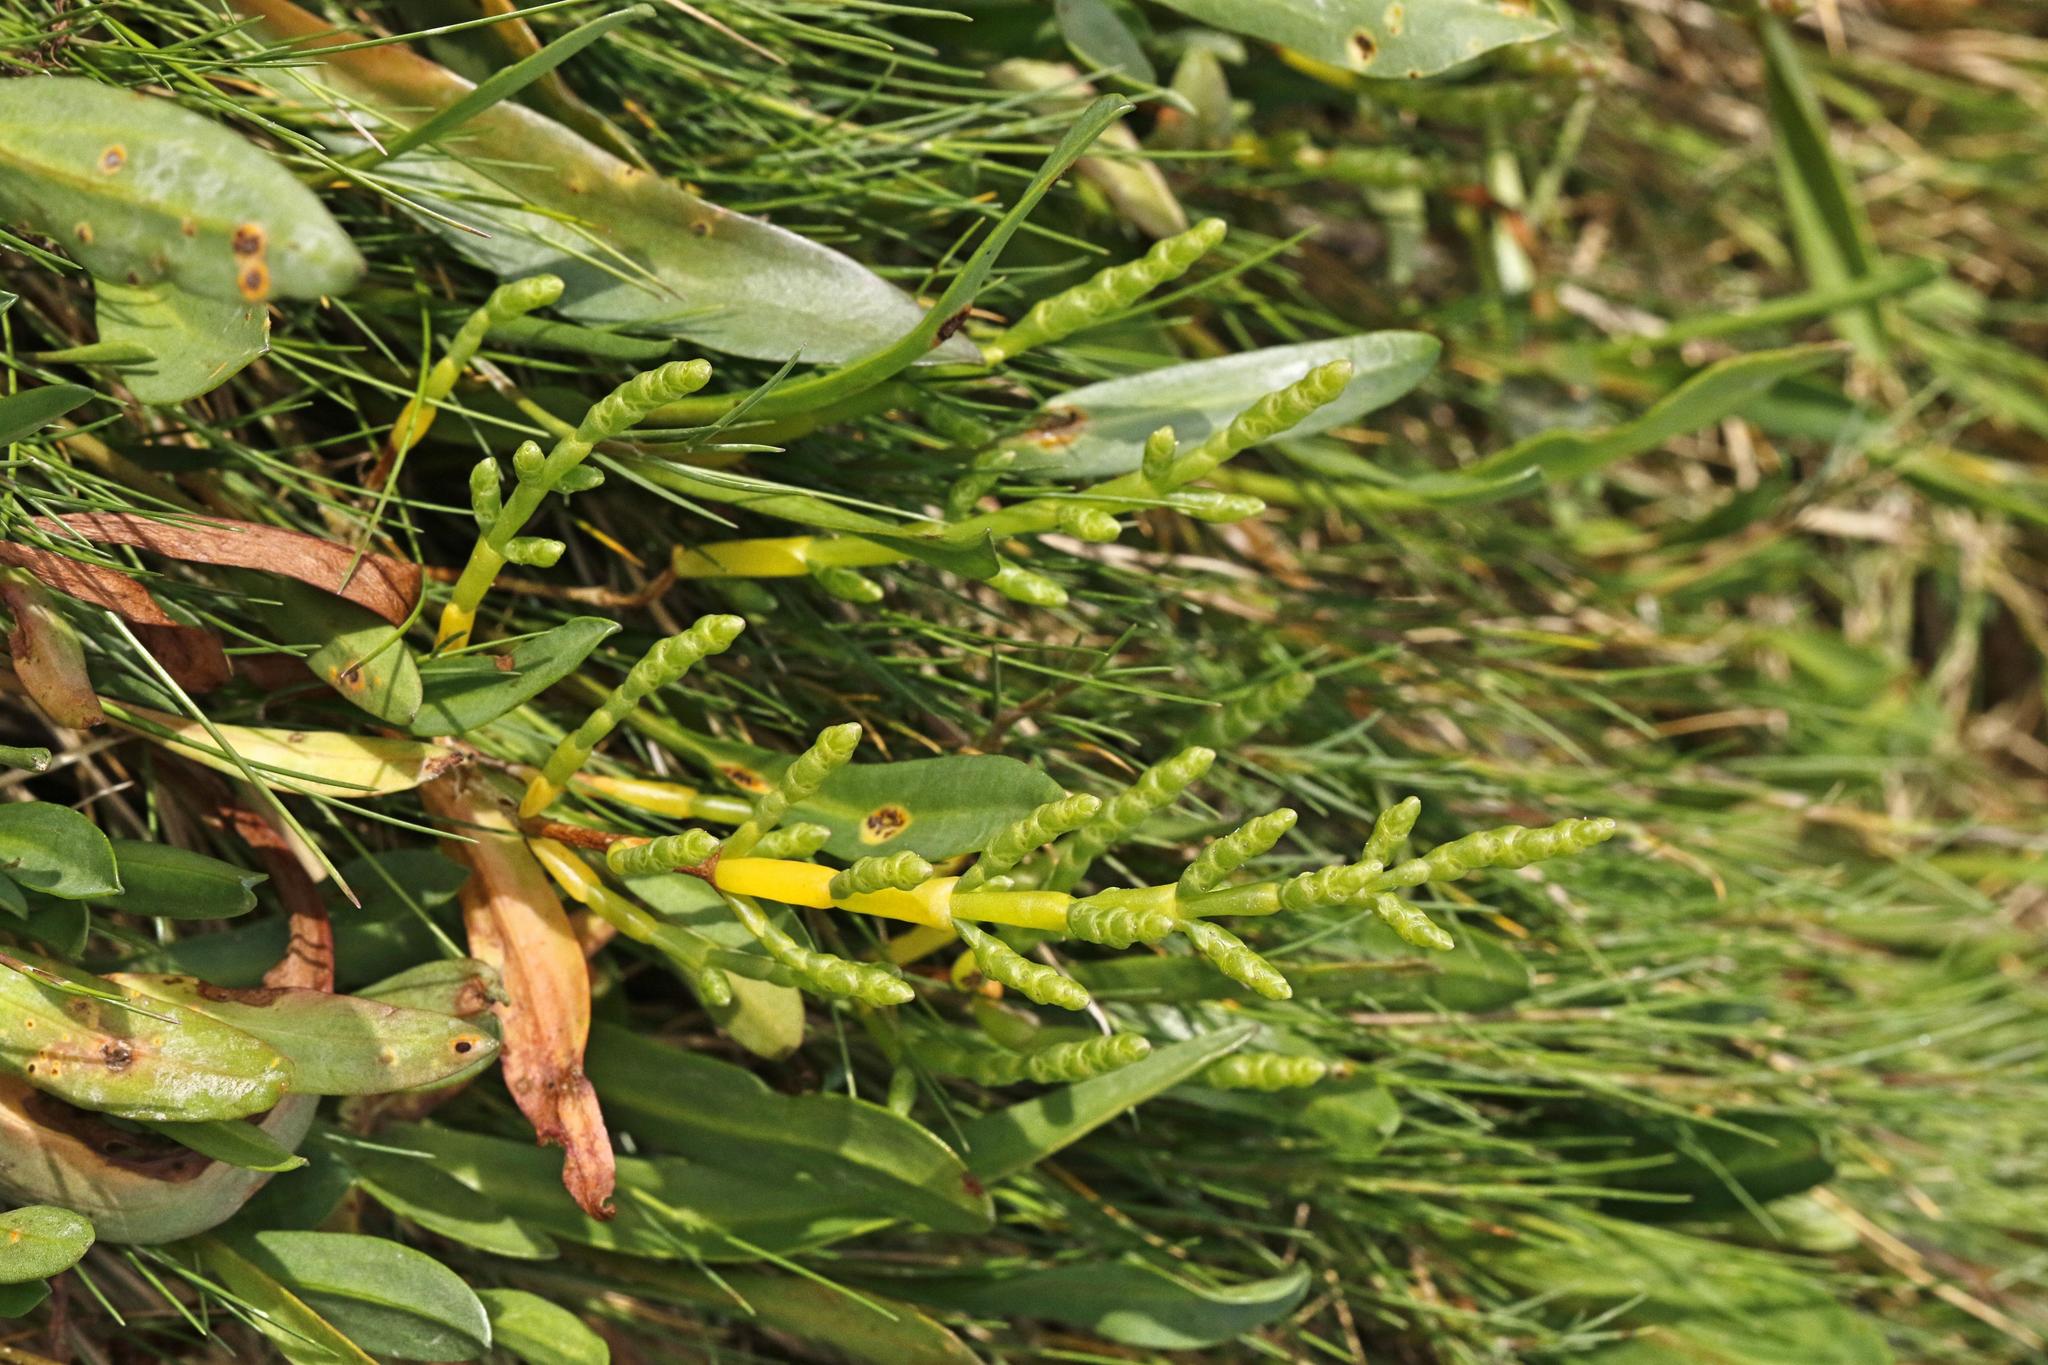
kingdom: Plantae
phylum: Tracheophyta
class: Magnoliopsida
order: Caryophyllales
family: Amaranthaceae
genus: Salicornia
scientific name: Salicornia
